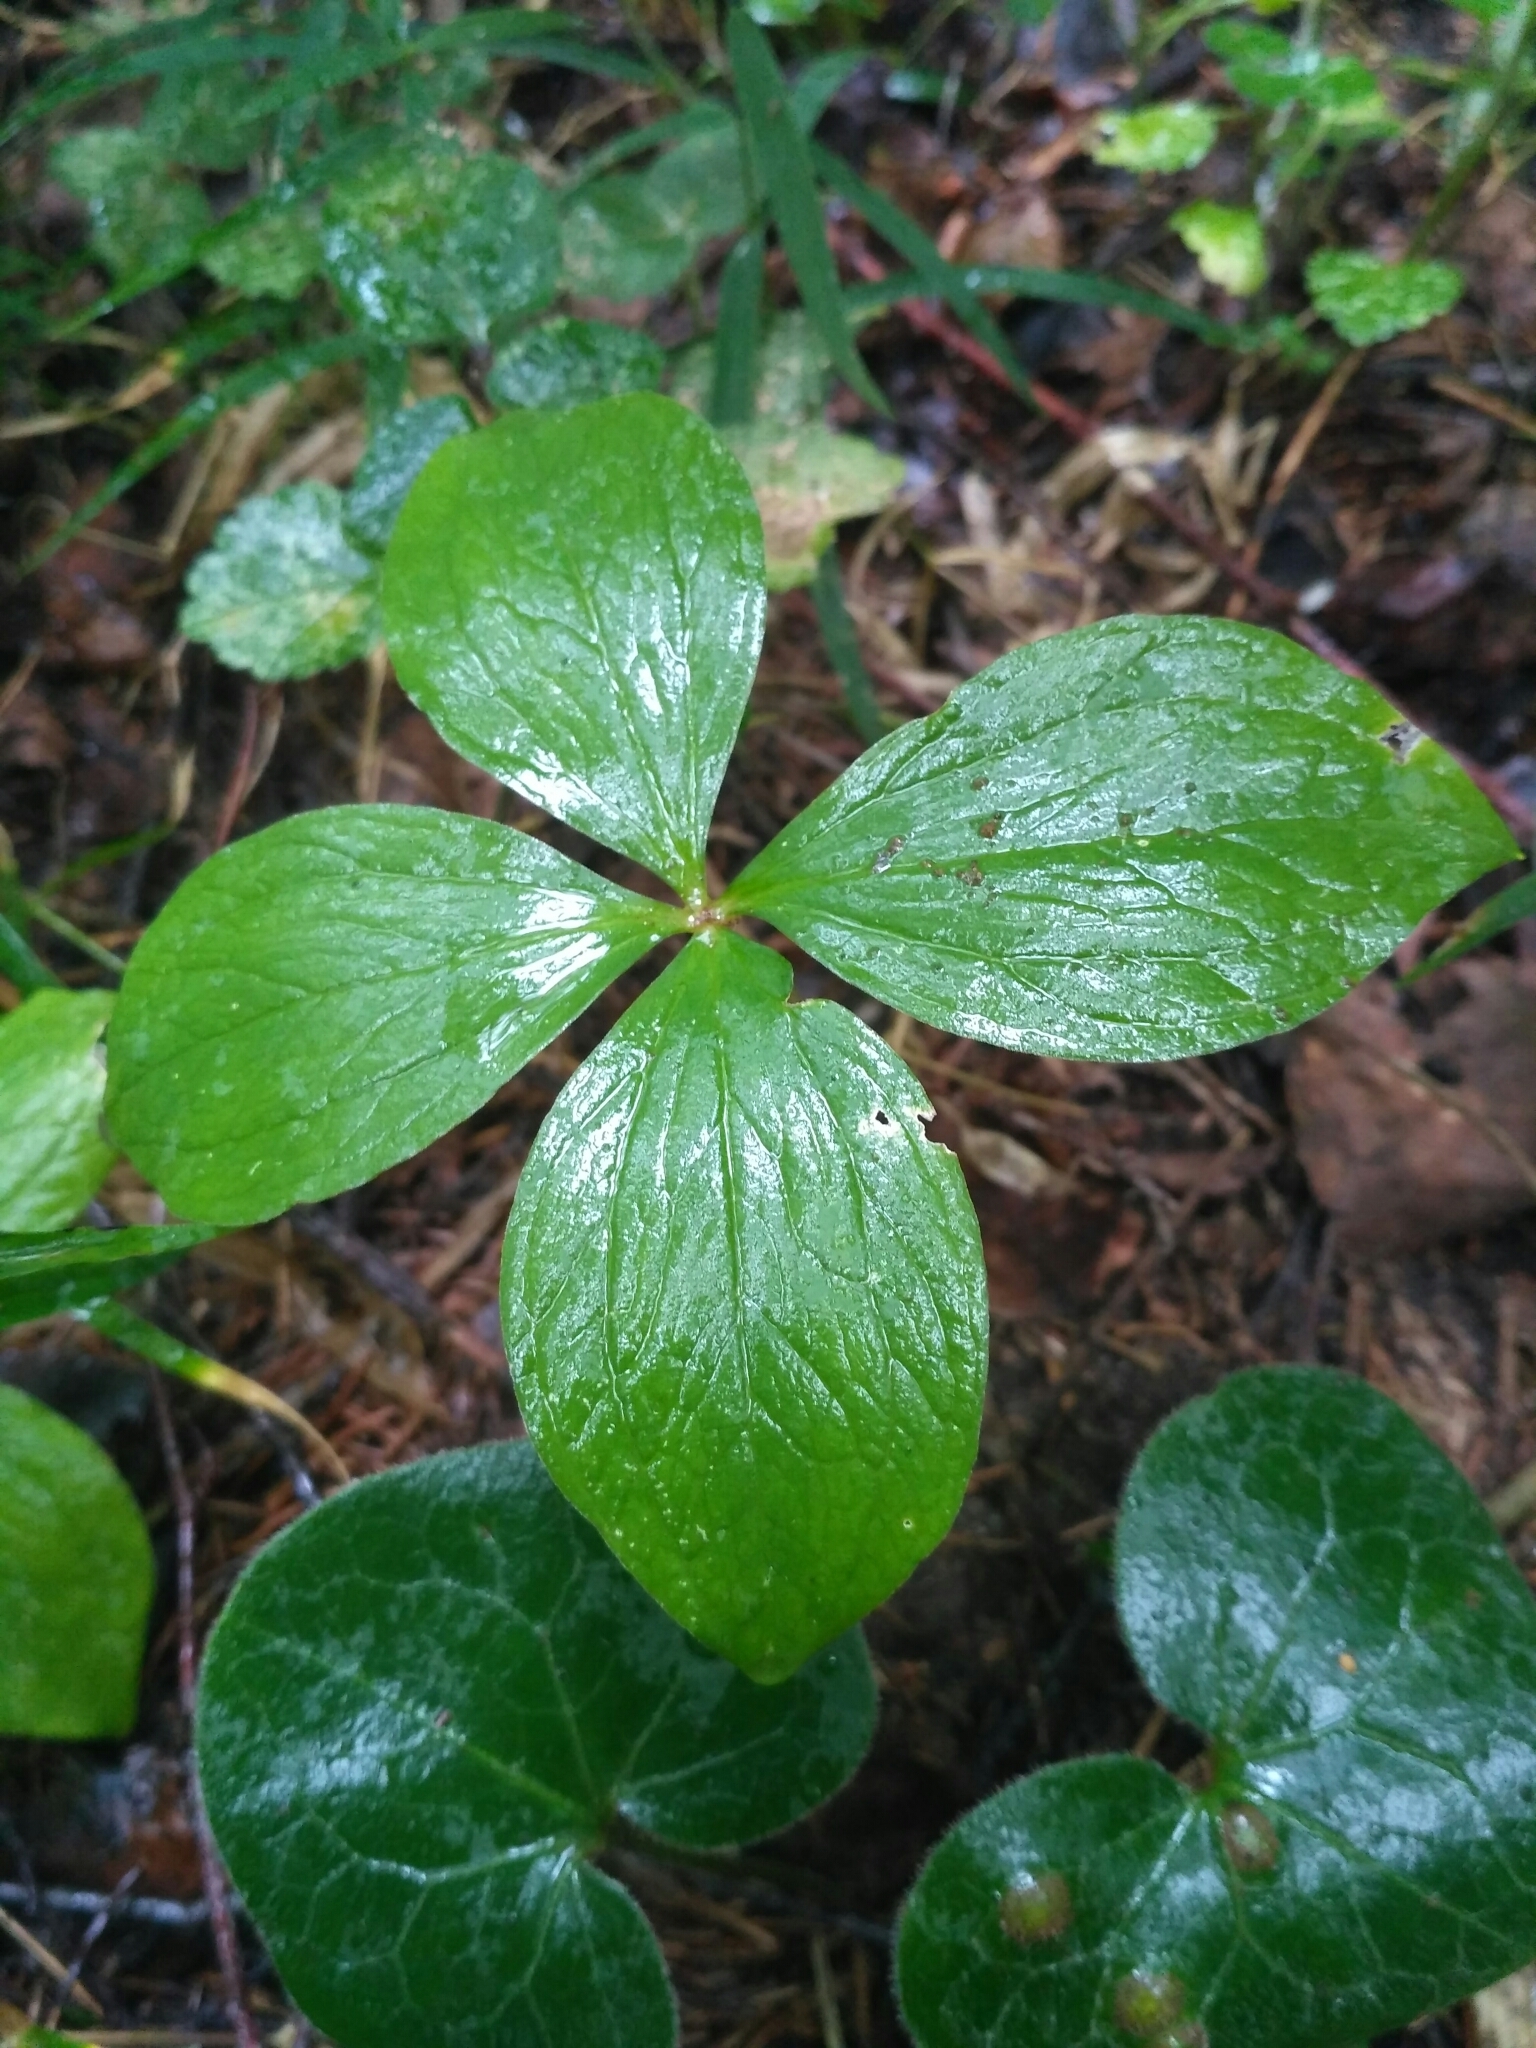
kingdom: Plantae
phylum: Tracheophyta
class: Liliopsida
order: Liliales
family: Melanthiaceae
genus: Paris
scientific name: Paris quadrifolia
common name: Herb-paris
